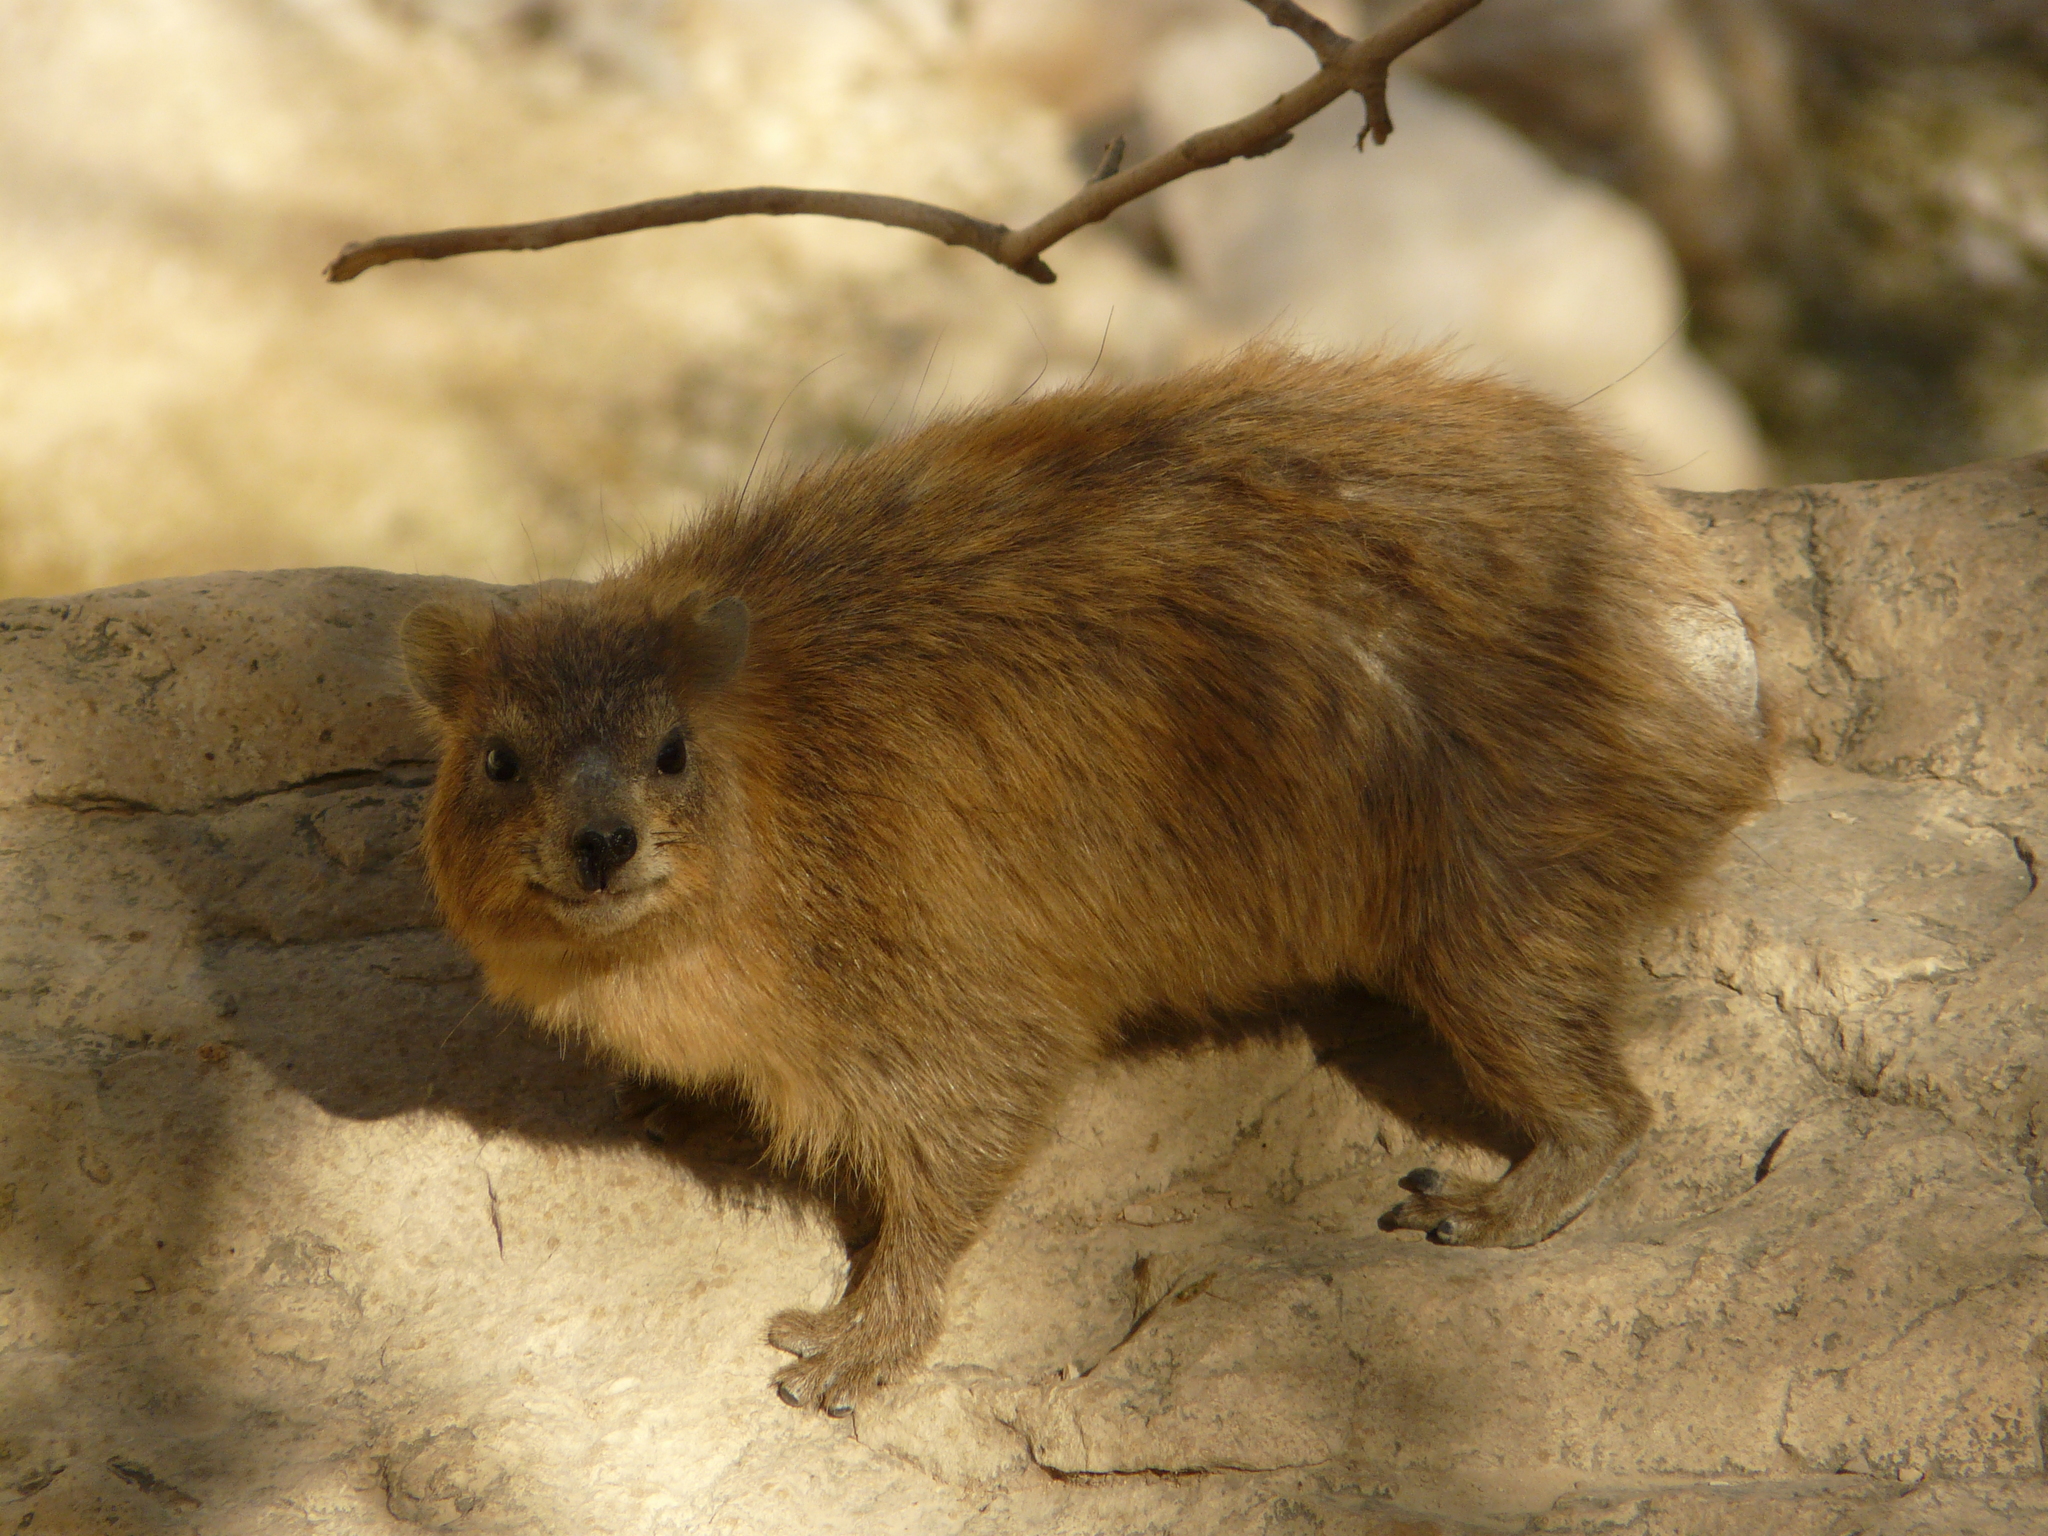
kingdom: Animalia
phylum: Chordata
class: Mammalia
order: Hyracoidea
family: Procaviidae
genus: Procavia
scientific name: Procavia capensis
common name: Rock hyrax
